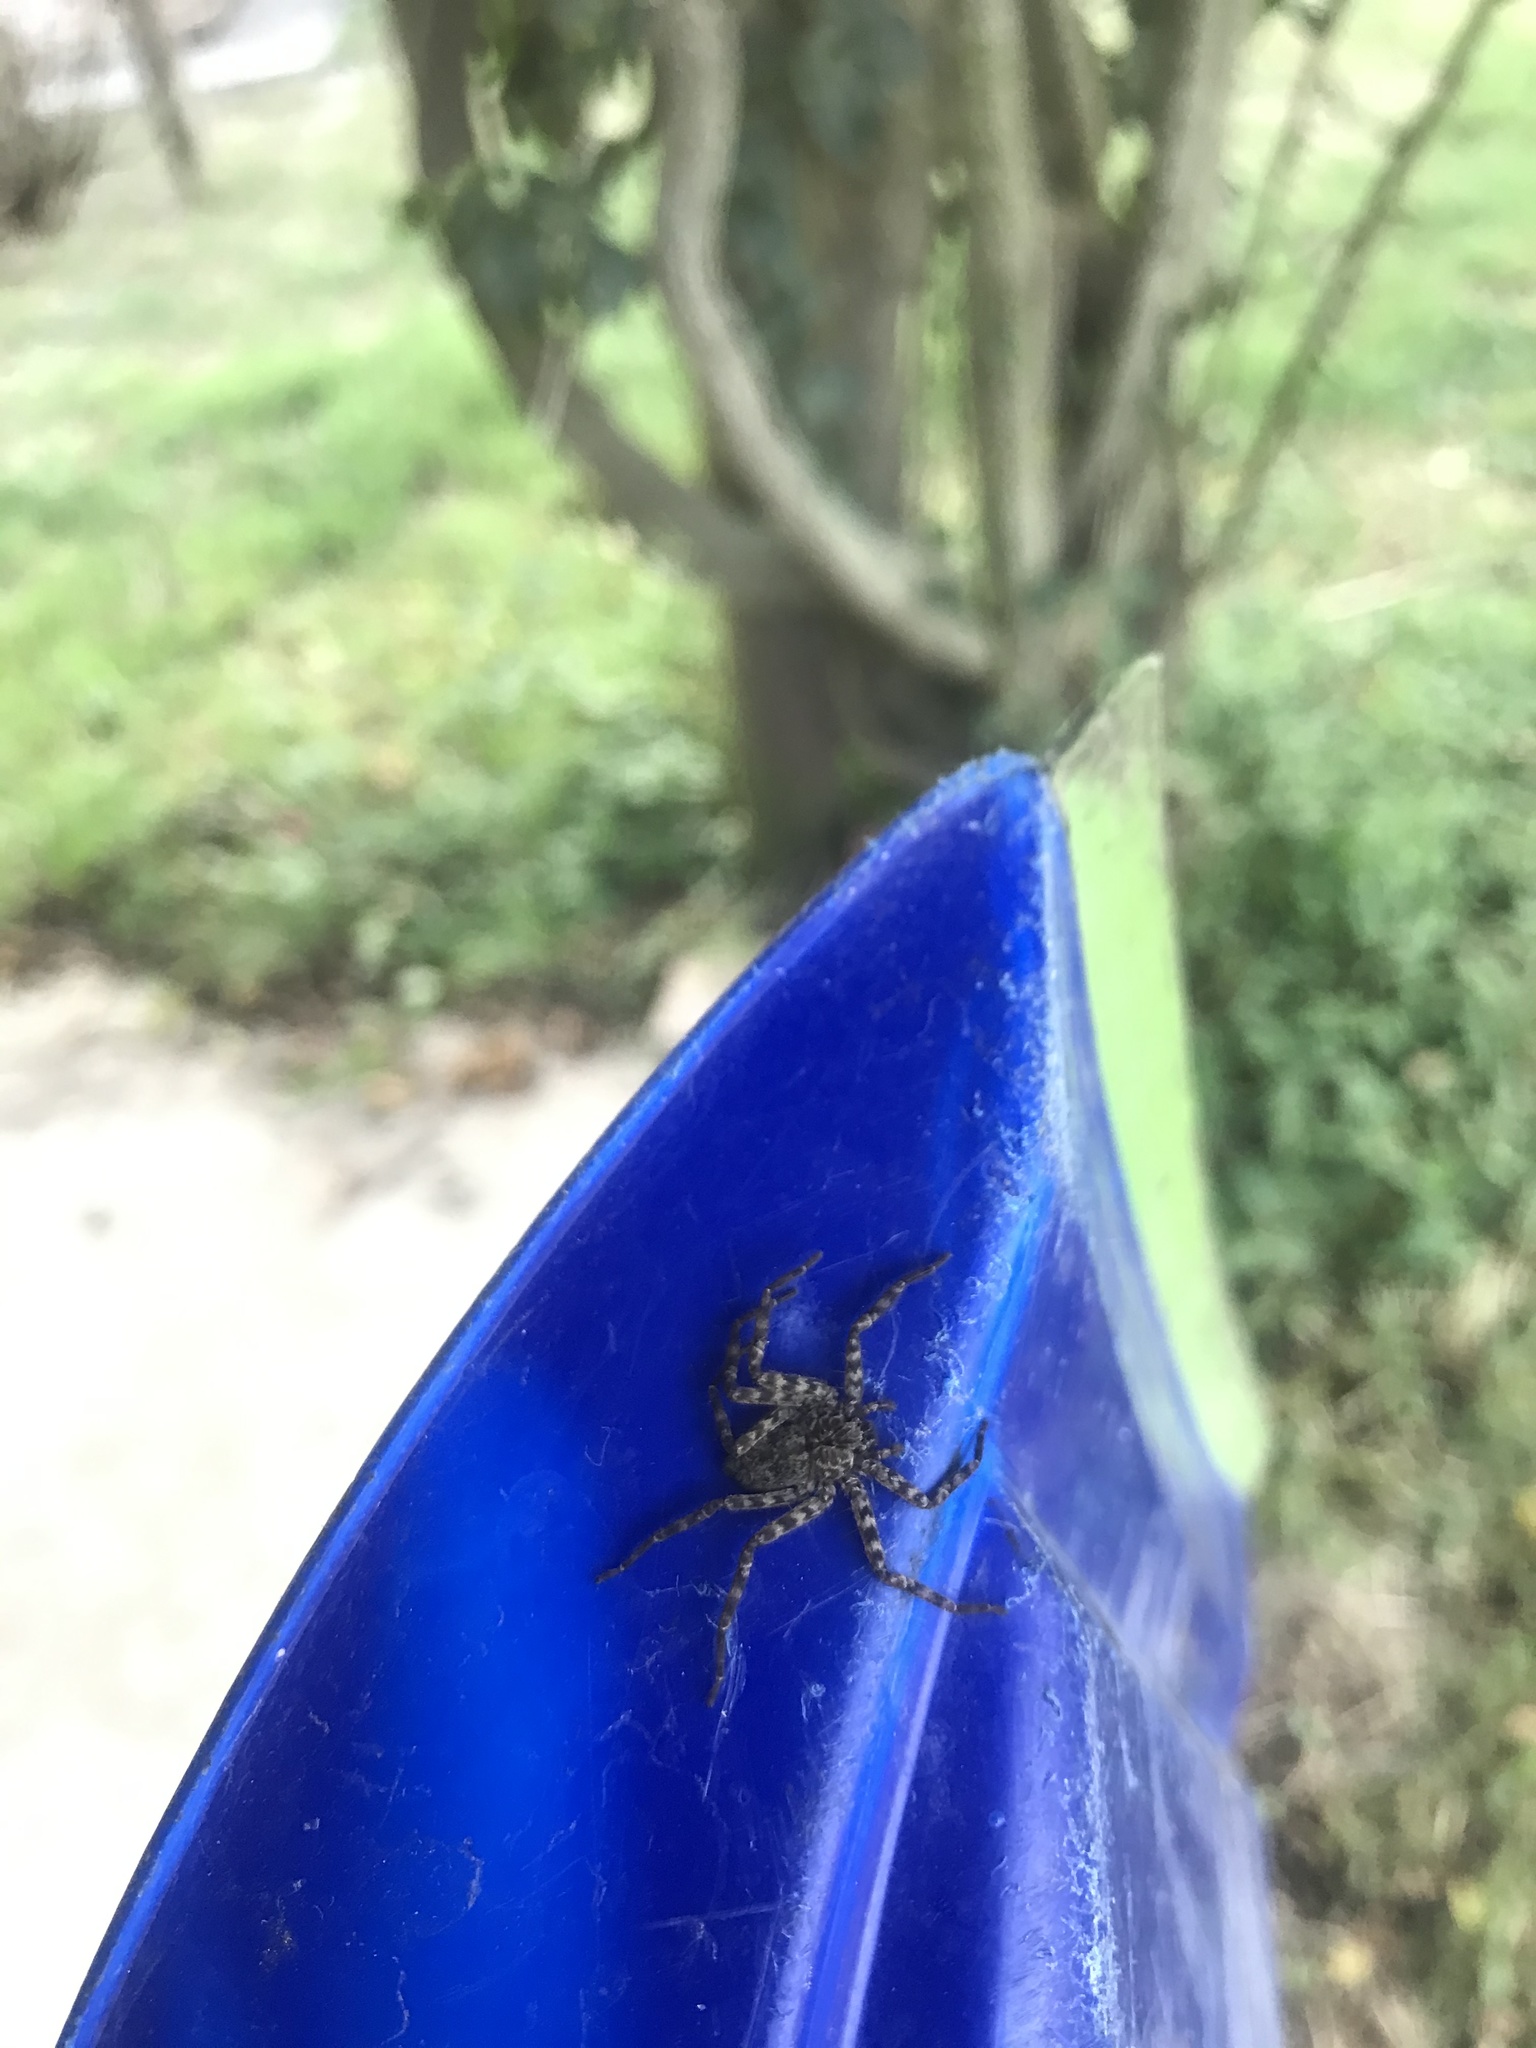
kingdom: Animalia
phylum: Arthropoda
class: Arachnida
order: Araneae
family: Selenopidae
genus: Selenops
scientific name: Selenops spixi
